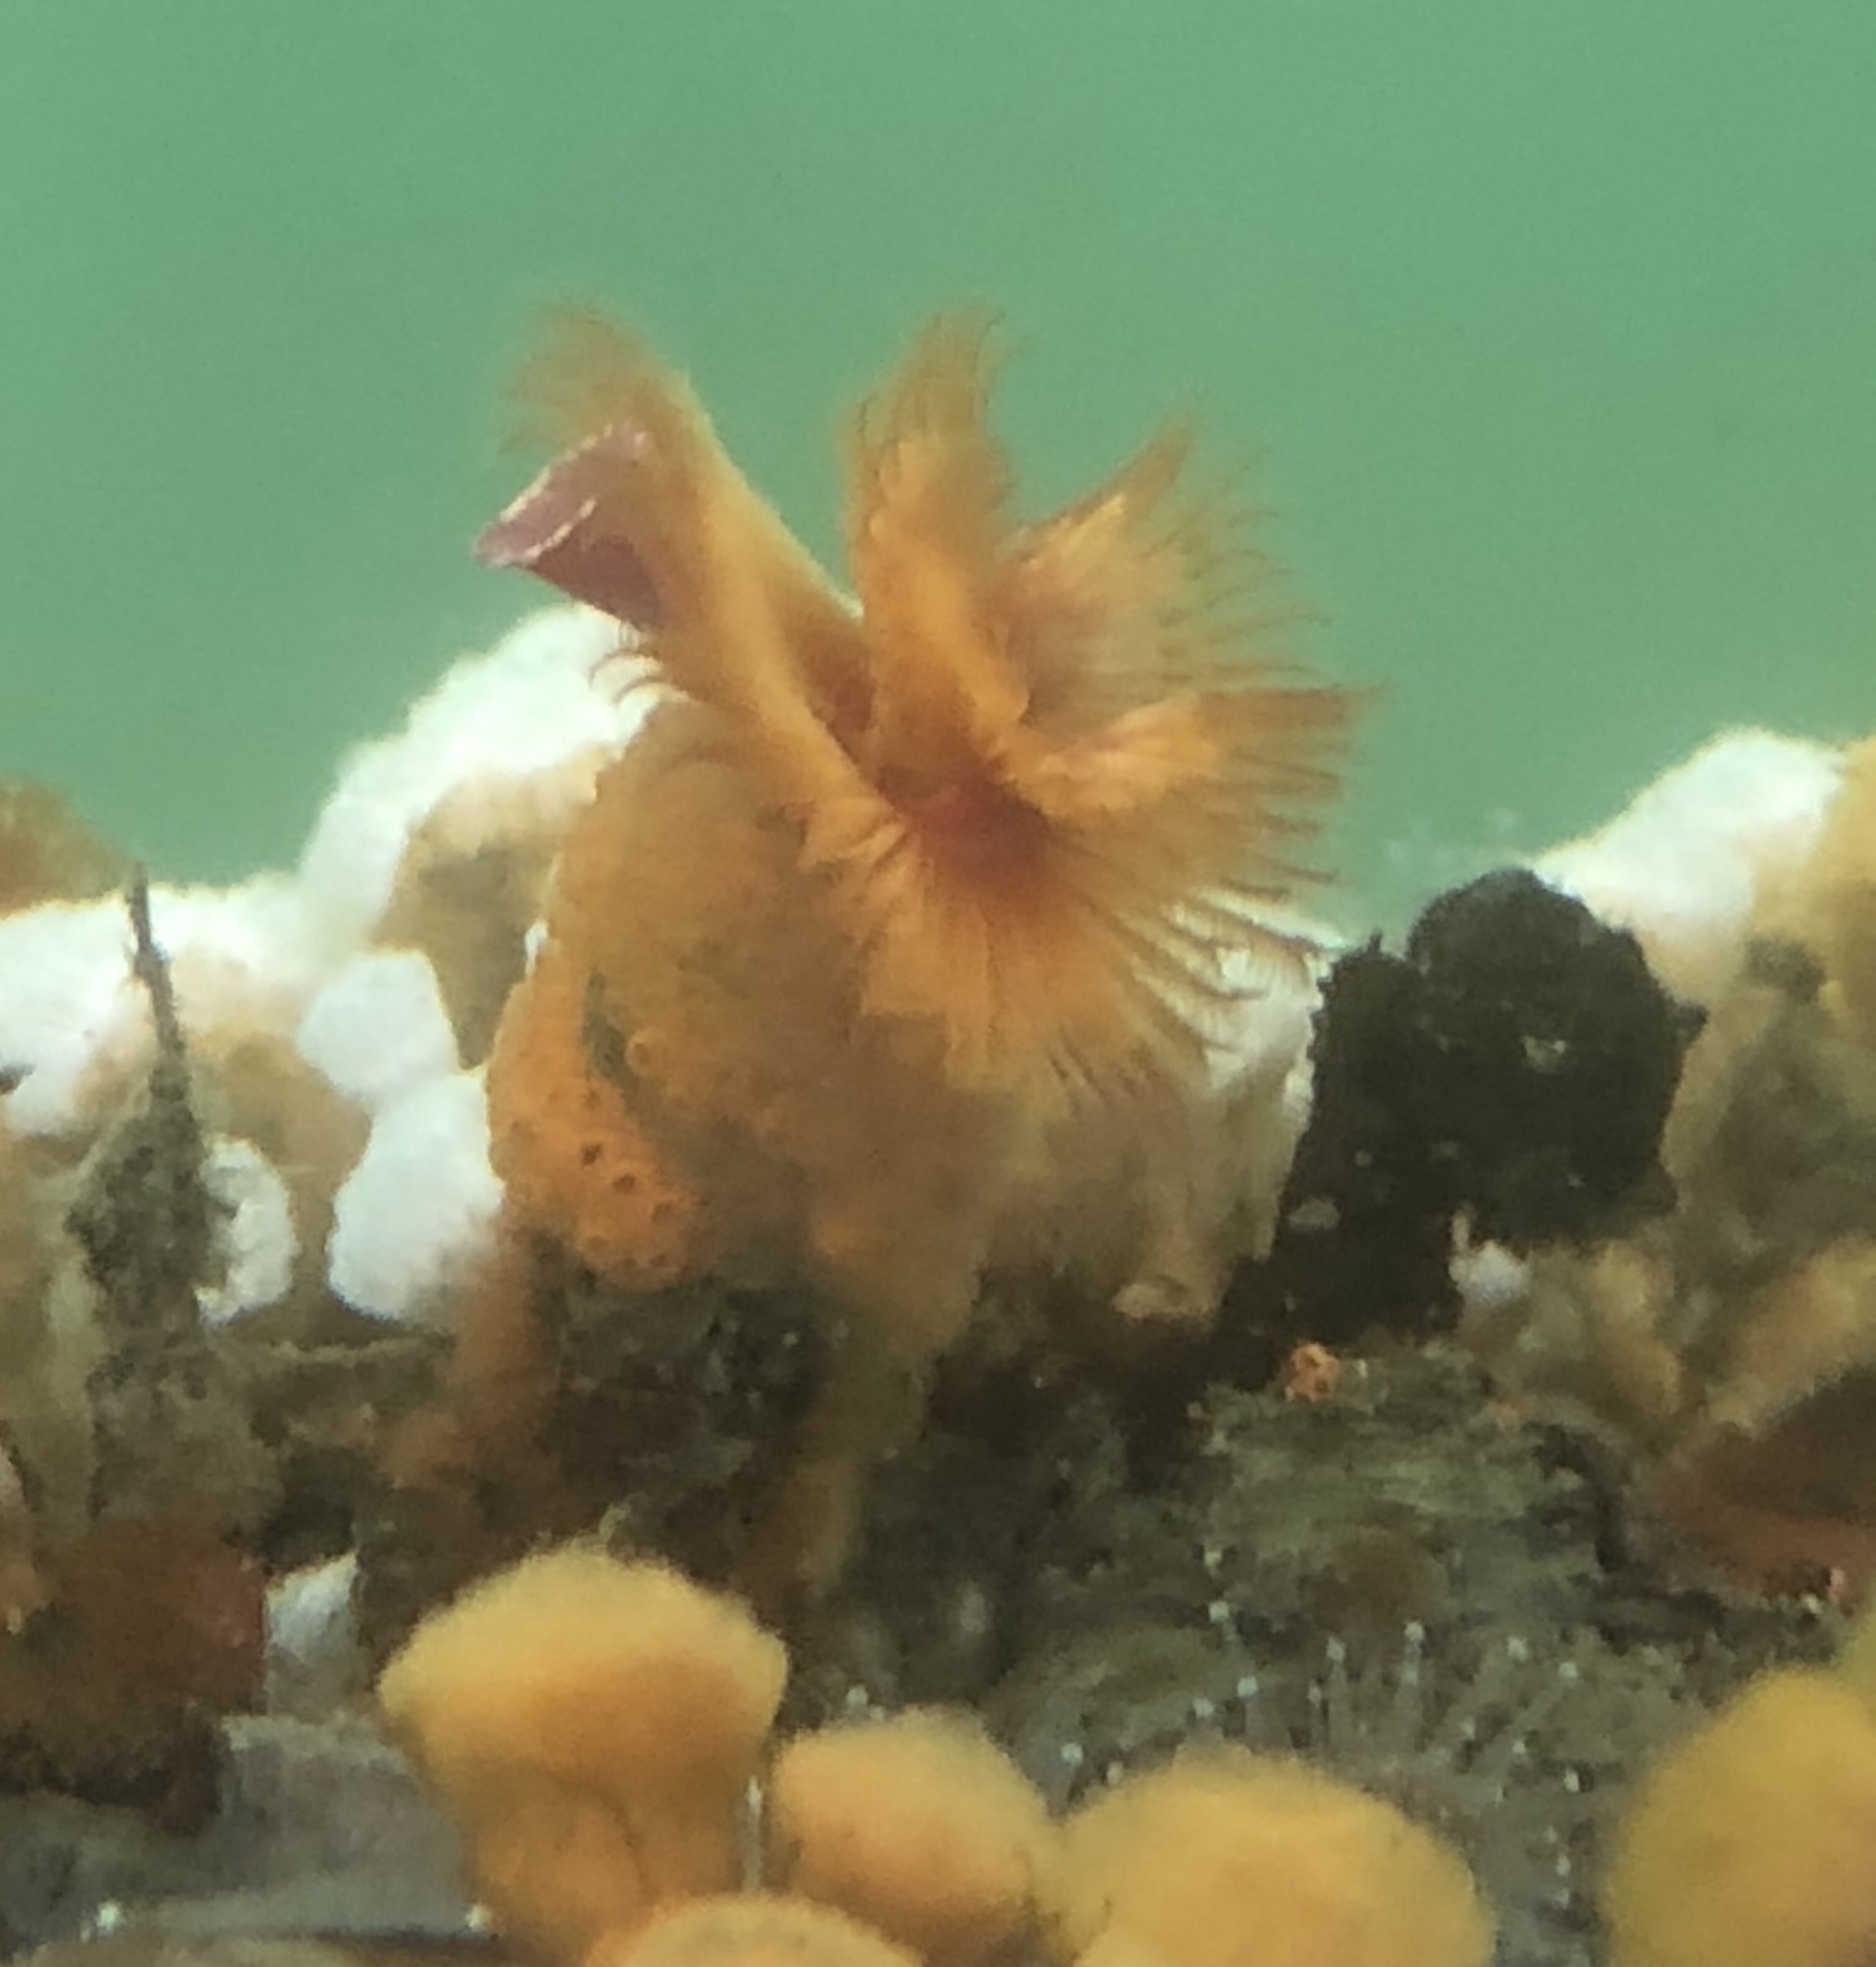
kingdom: Animalia
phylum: Annelida
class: Polychaeta
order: Sabellida
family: Serpulidae
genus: Serpula
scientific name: Serpula columbiana
